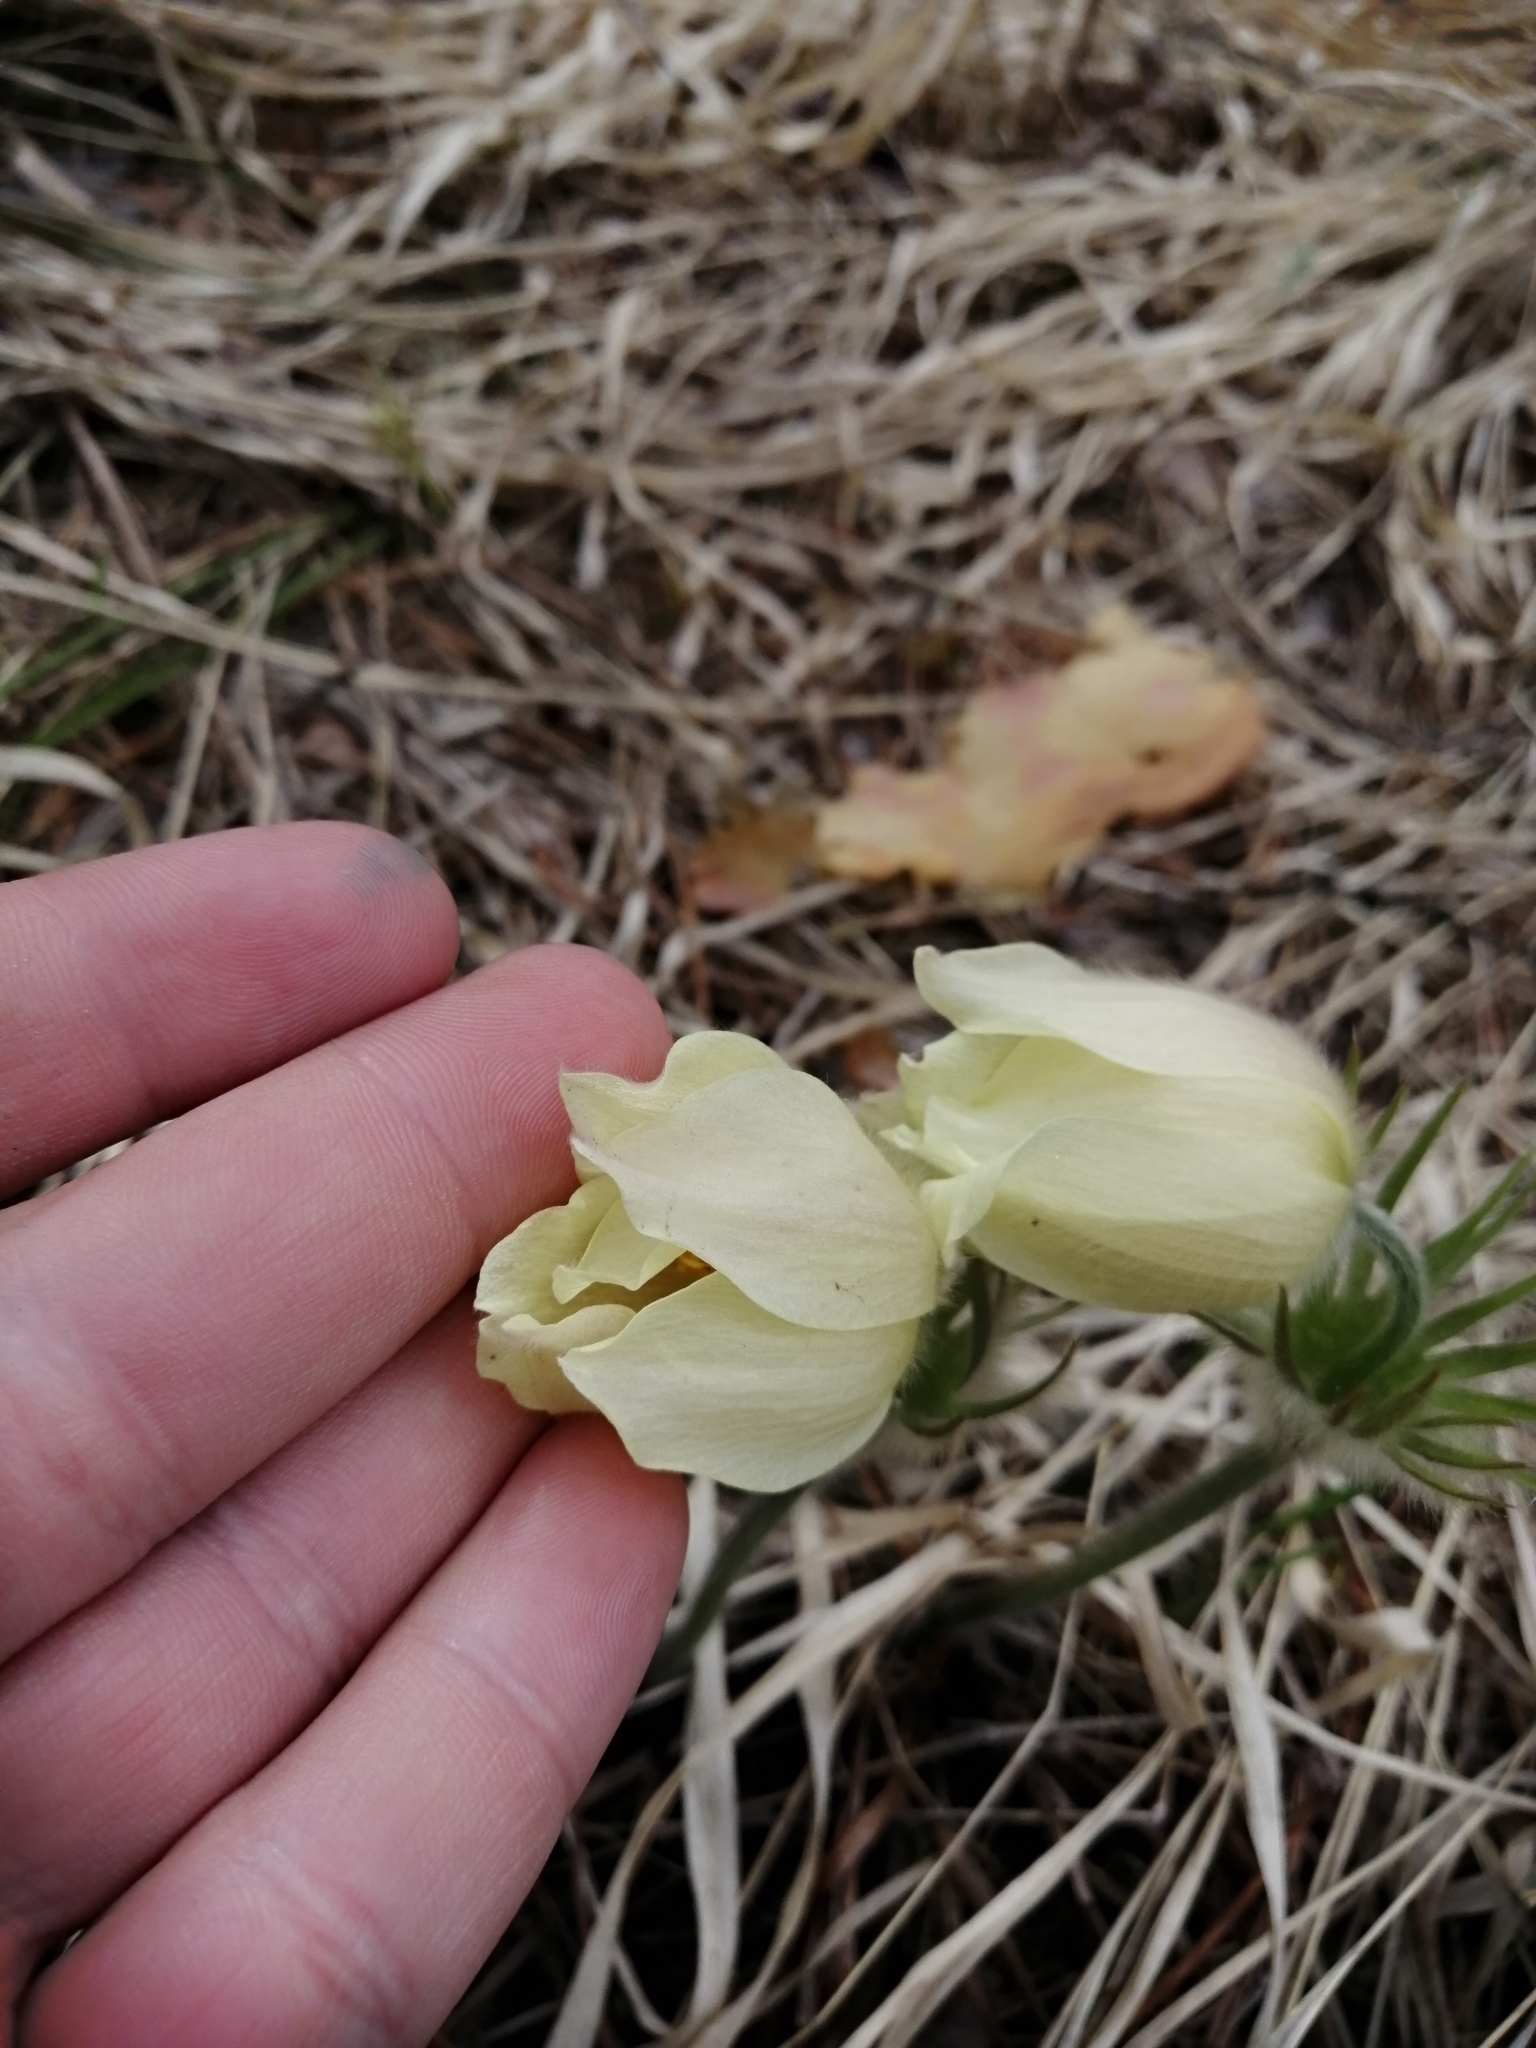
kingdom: Plantae
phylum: Tracheophyta
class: Magnoliopsida
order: Ranunculales
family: Ranunculaceae
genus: Pulsatilla
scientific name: Pulsatilla patens
